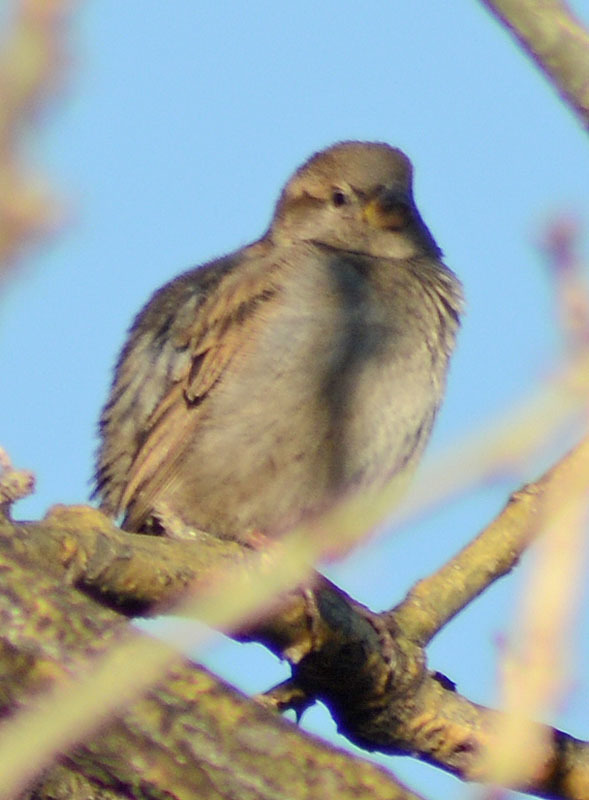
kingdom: Animalia
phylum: Chordata
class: Aves
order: Passeriformes
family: Passeridae
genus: Passer
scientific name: Passer domesticus
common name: House sparrow
